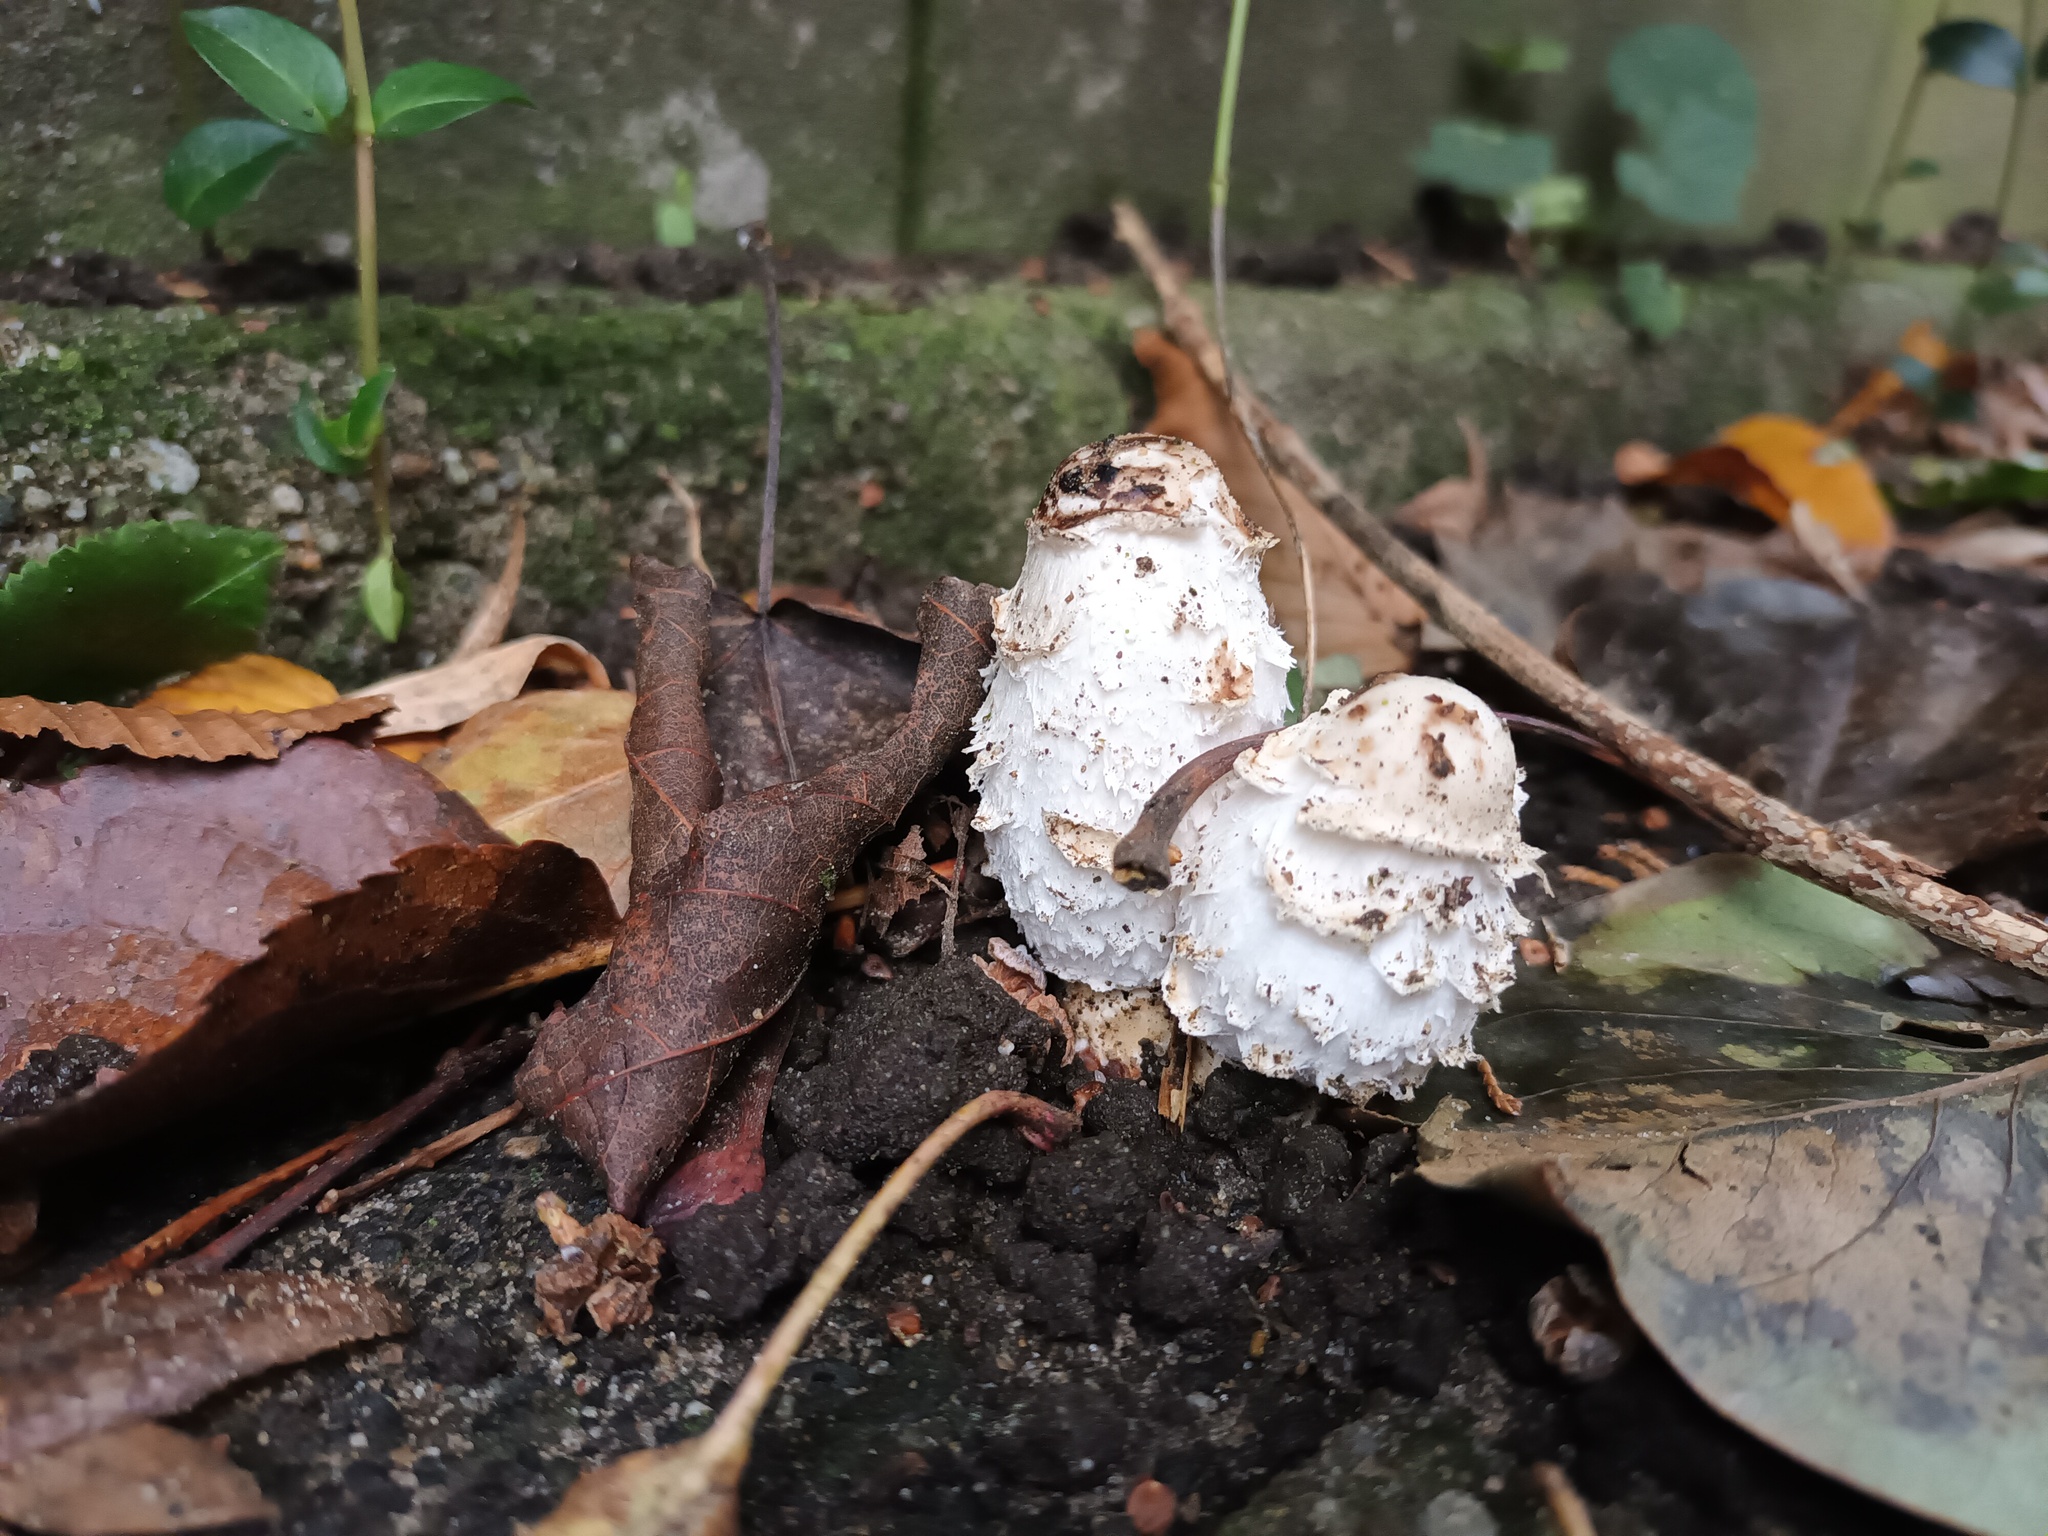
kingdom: Fungi
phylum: Basidiomycota
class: Agaricomycetes
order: Agaricales
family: Agaricaceae
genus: Coprinus
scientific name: Coprinus comatus
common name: Lawyer's wig
